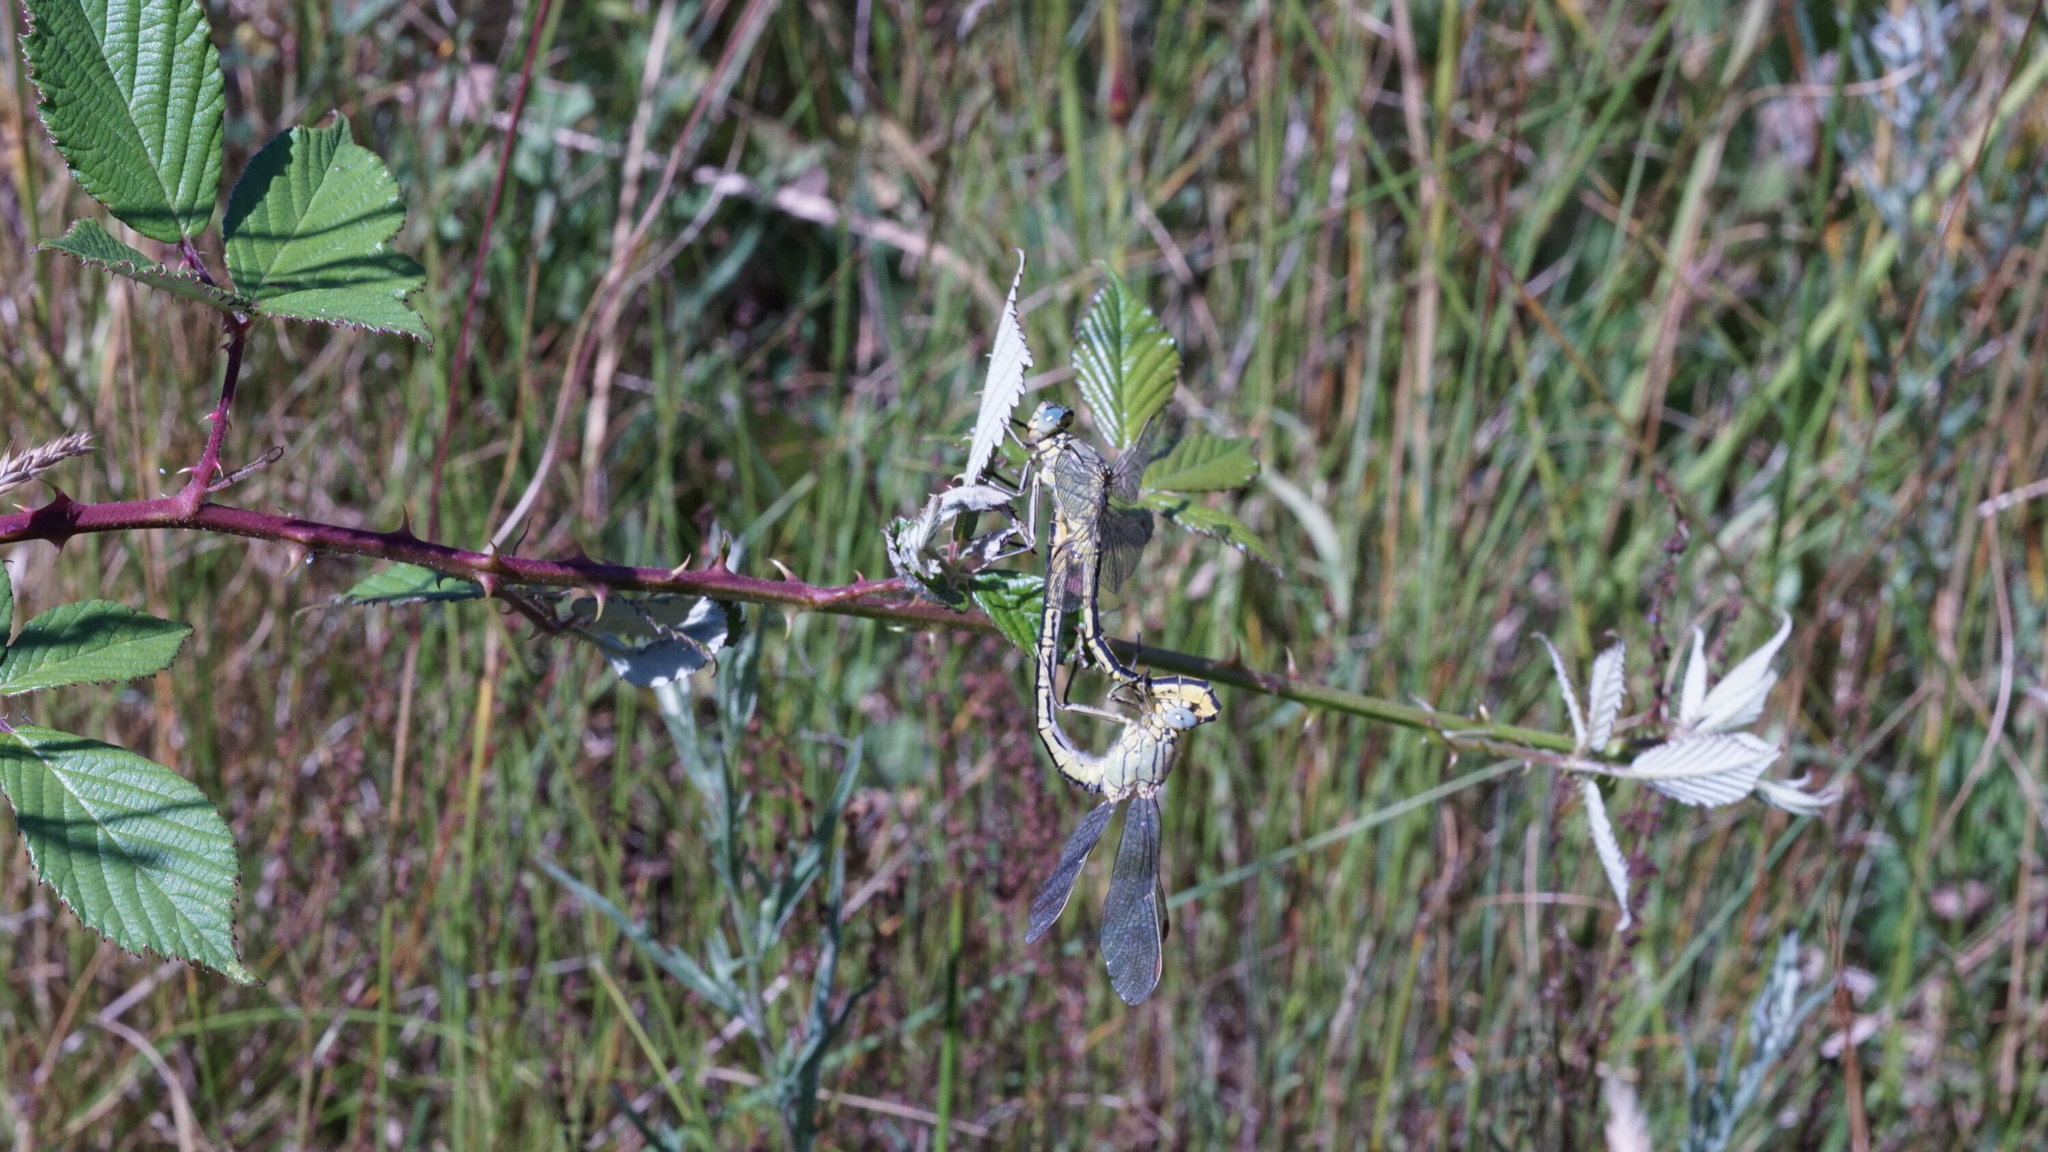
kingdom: Animalia
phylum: Arthropoda
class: Insecta
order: Odonata
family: Gomphidae
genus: Gomphus
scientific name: Gomphus pulchellus
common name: Western clubtail
